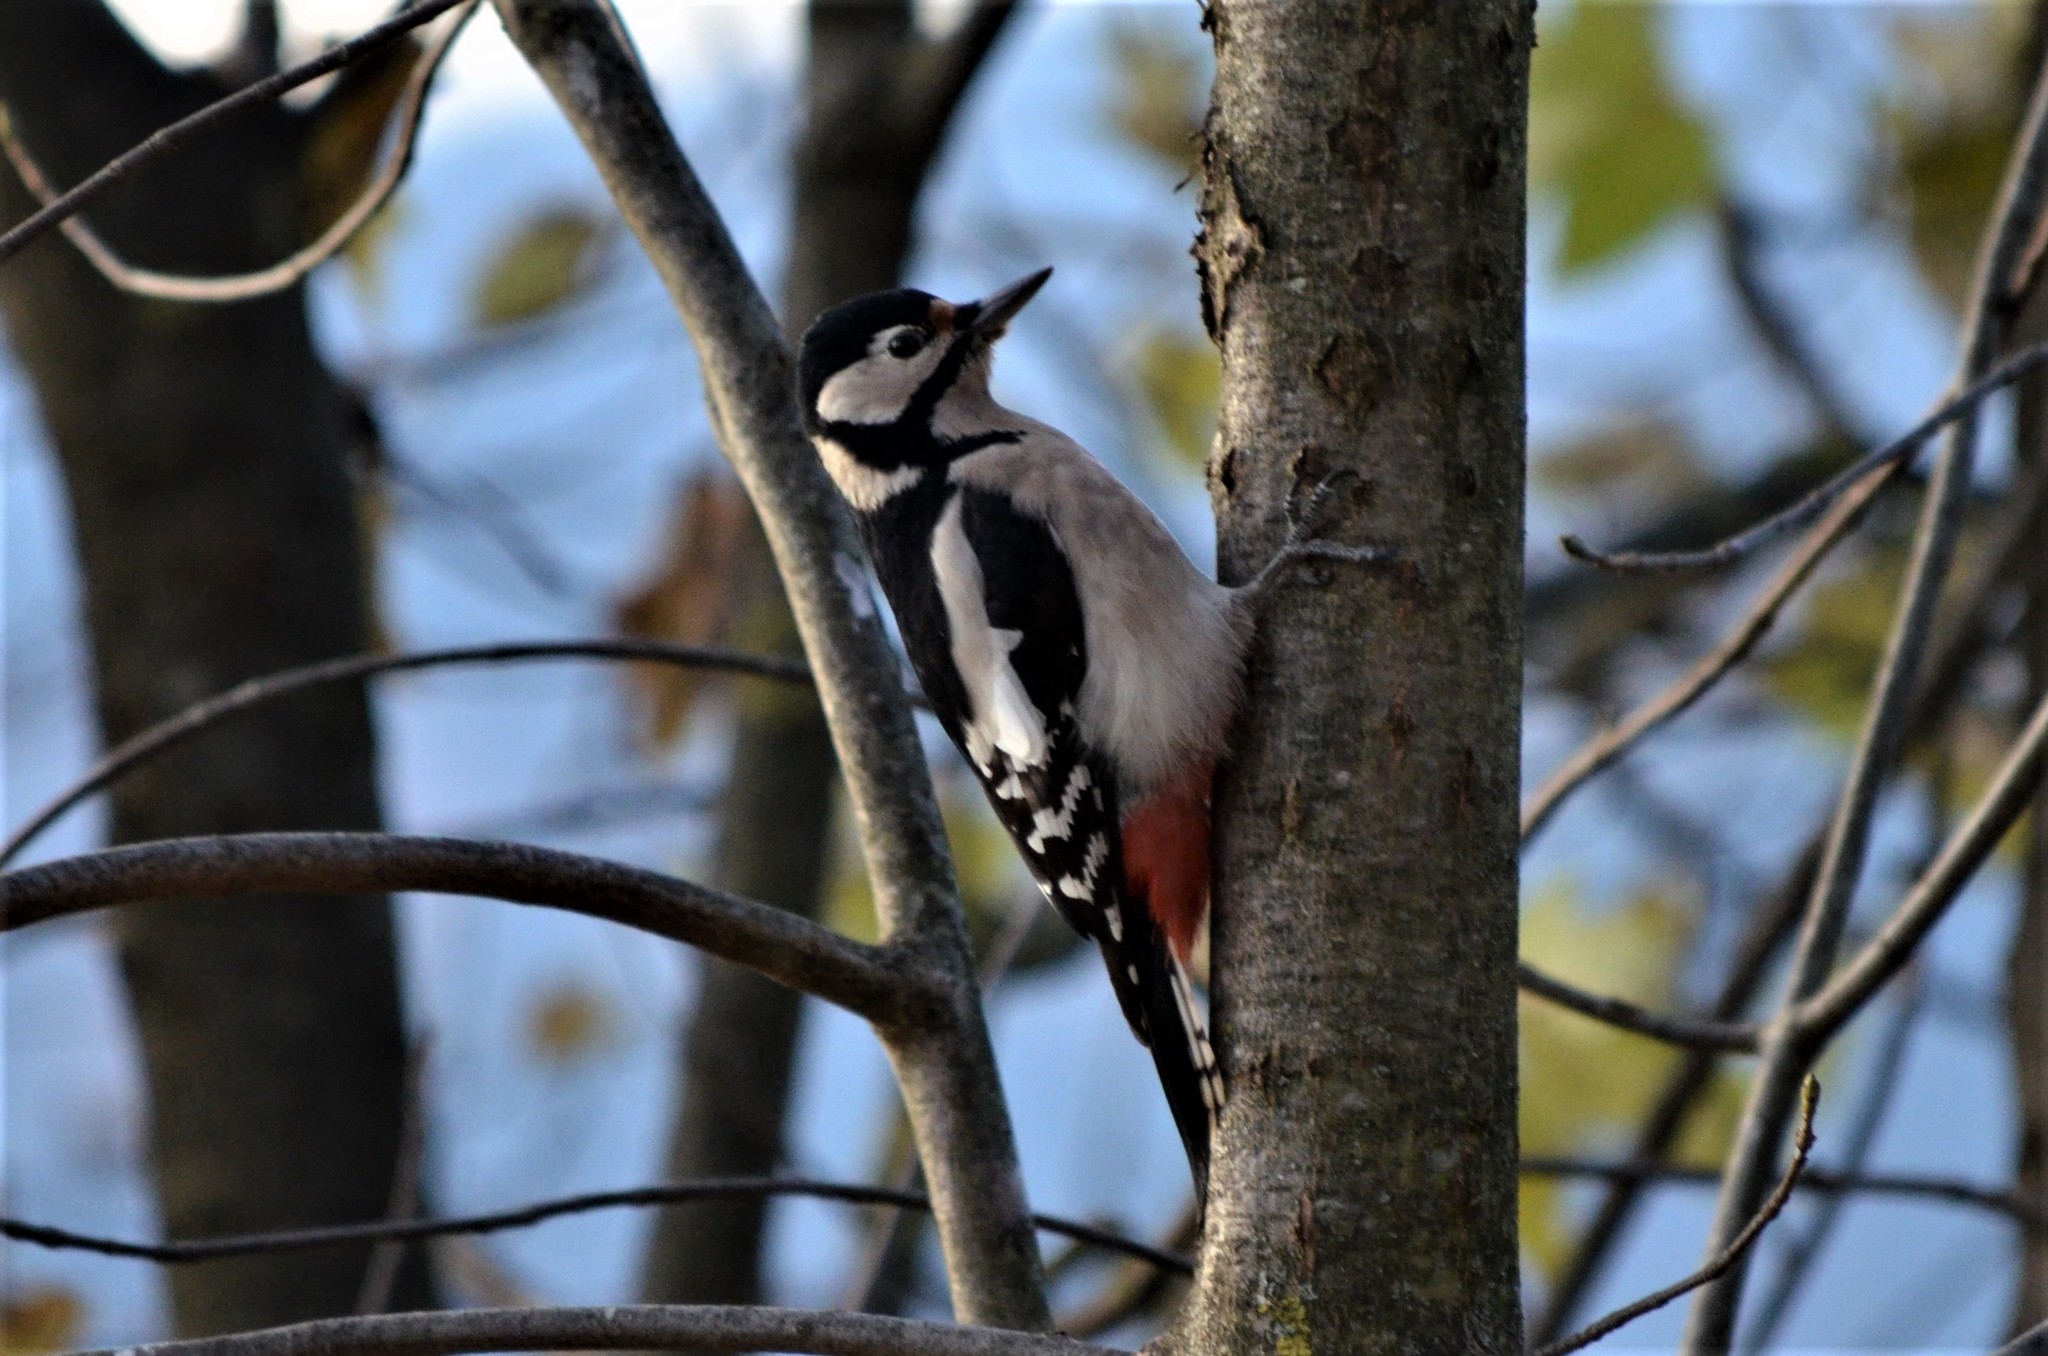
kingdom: Animalia
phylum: Chordata
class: Aves
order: Piciformes
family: Picidae
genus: Dendrocopos
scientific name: Dendrocopos major
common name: Great spotted woodpecker
